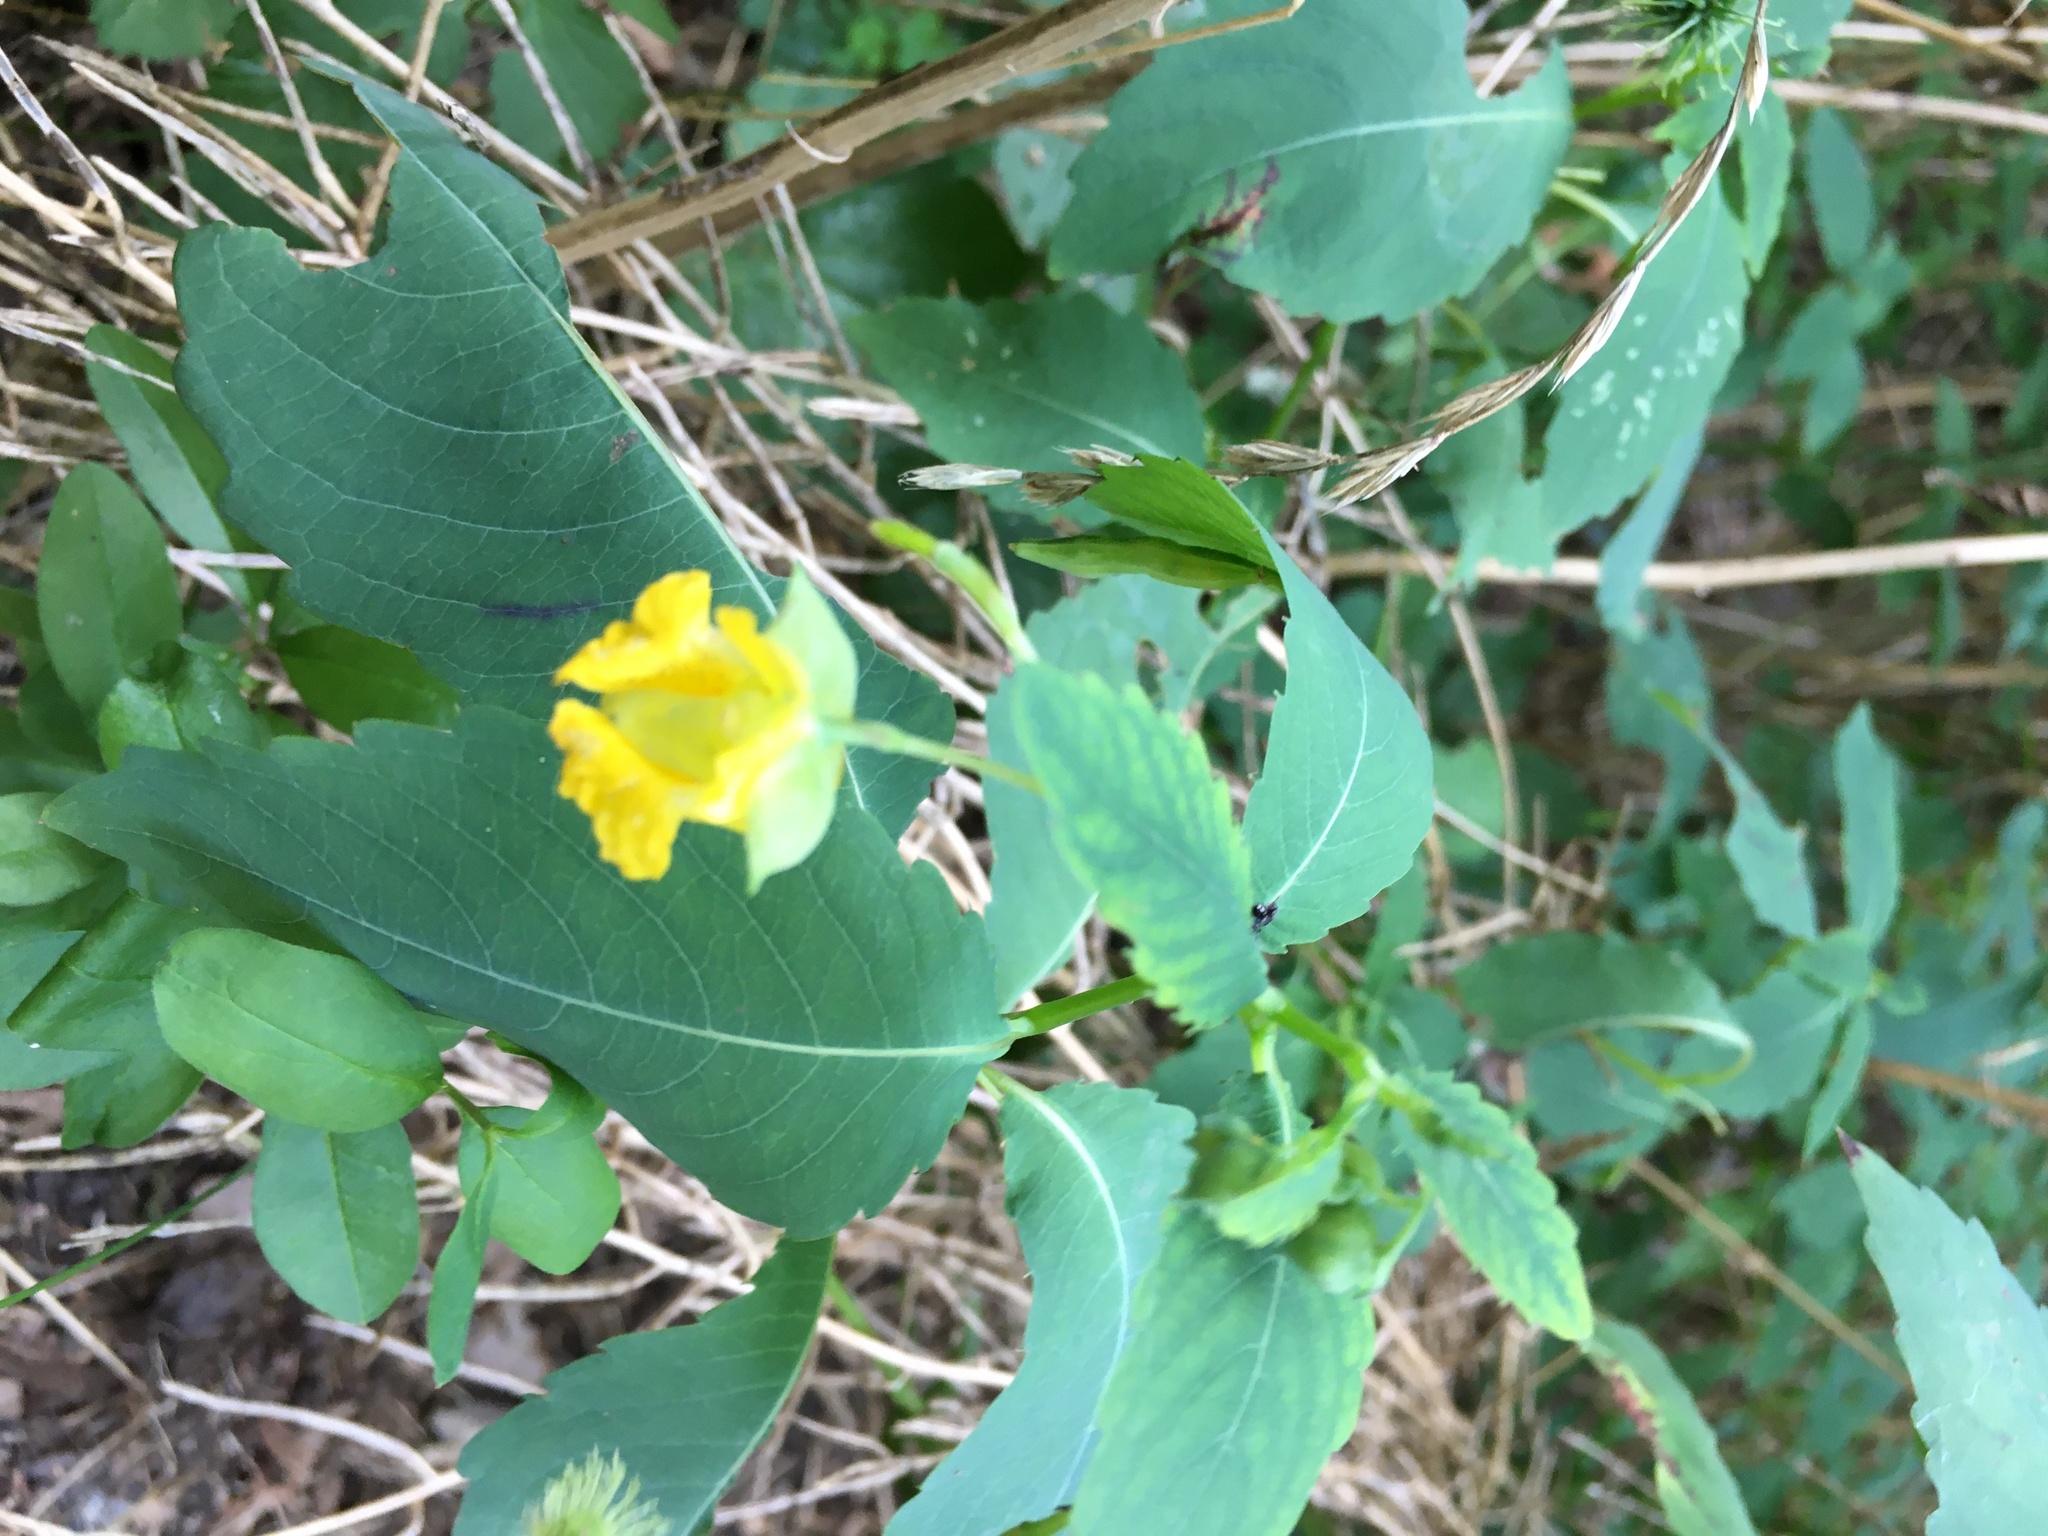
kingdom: Plantae
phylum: Tracheophyta
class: Magnoliopsida
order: Ericales
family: Balsaminaceae
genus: Impatiens
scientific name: Impatiens pallida
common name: Pale snapweed
